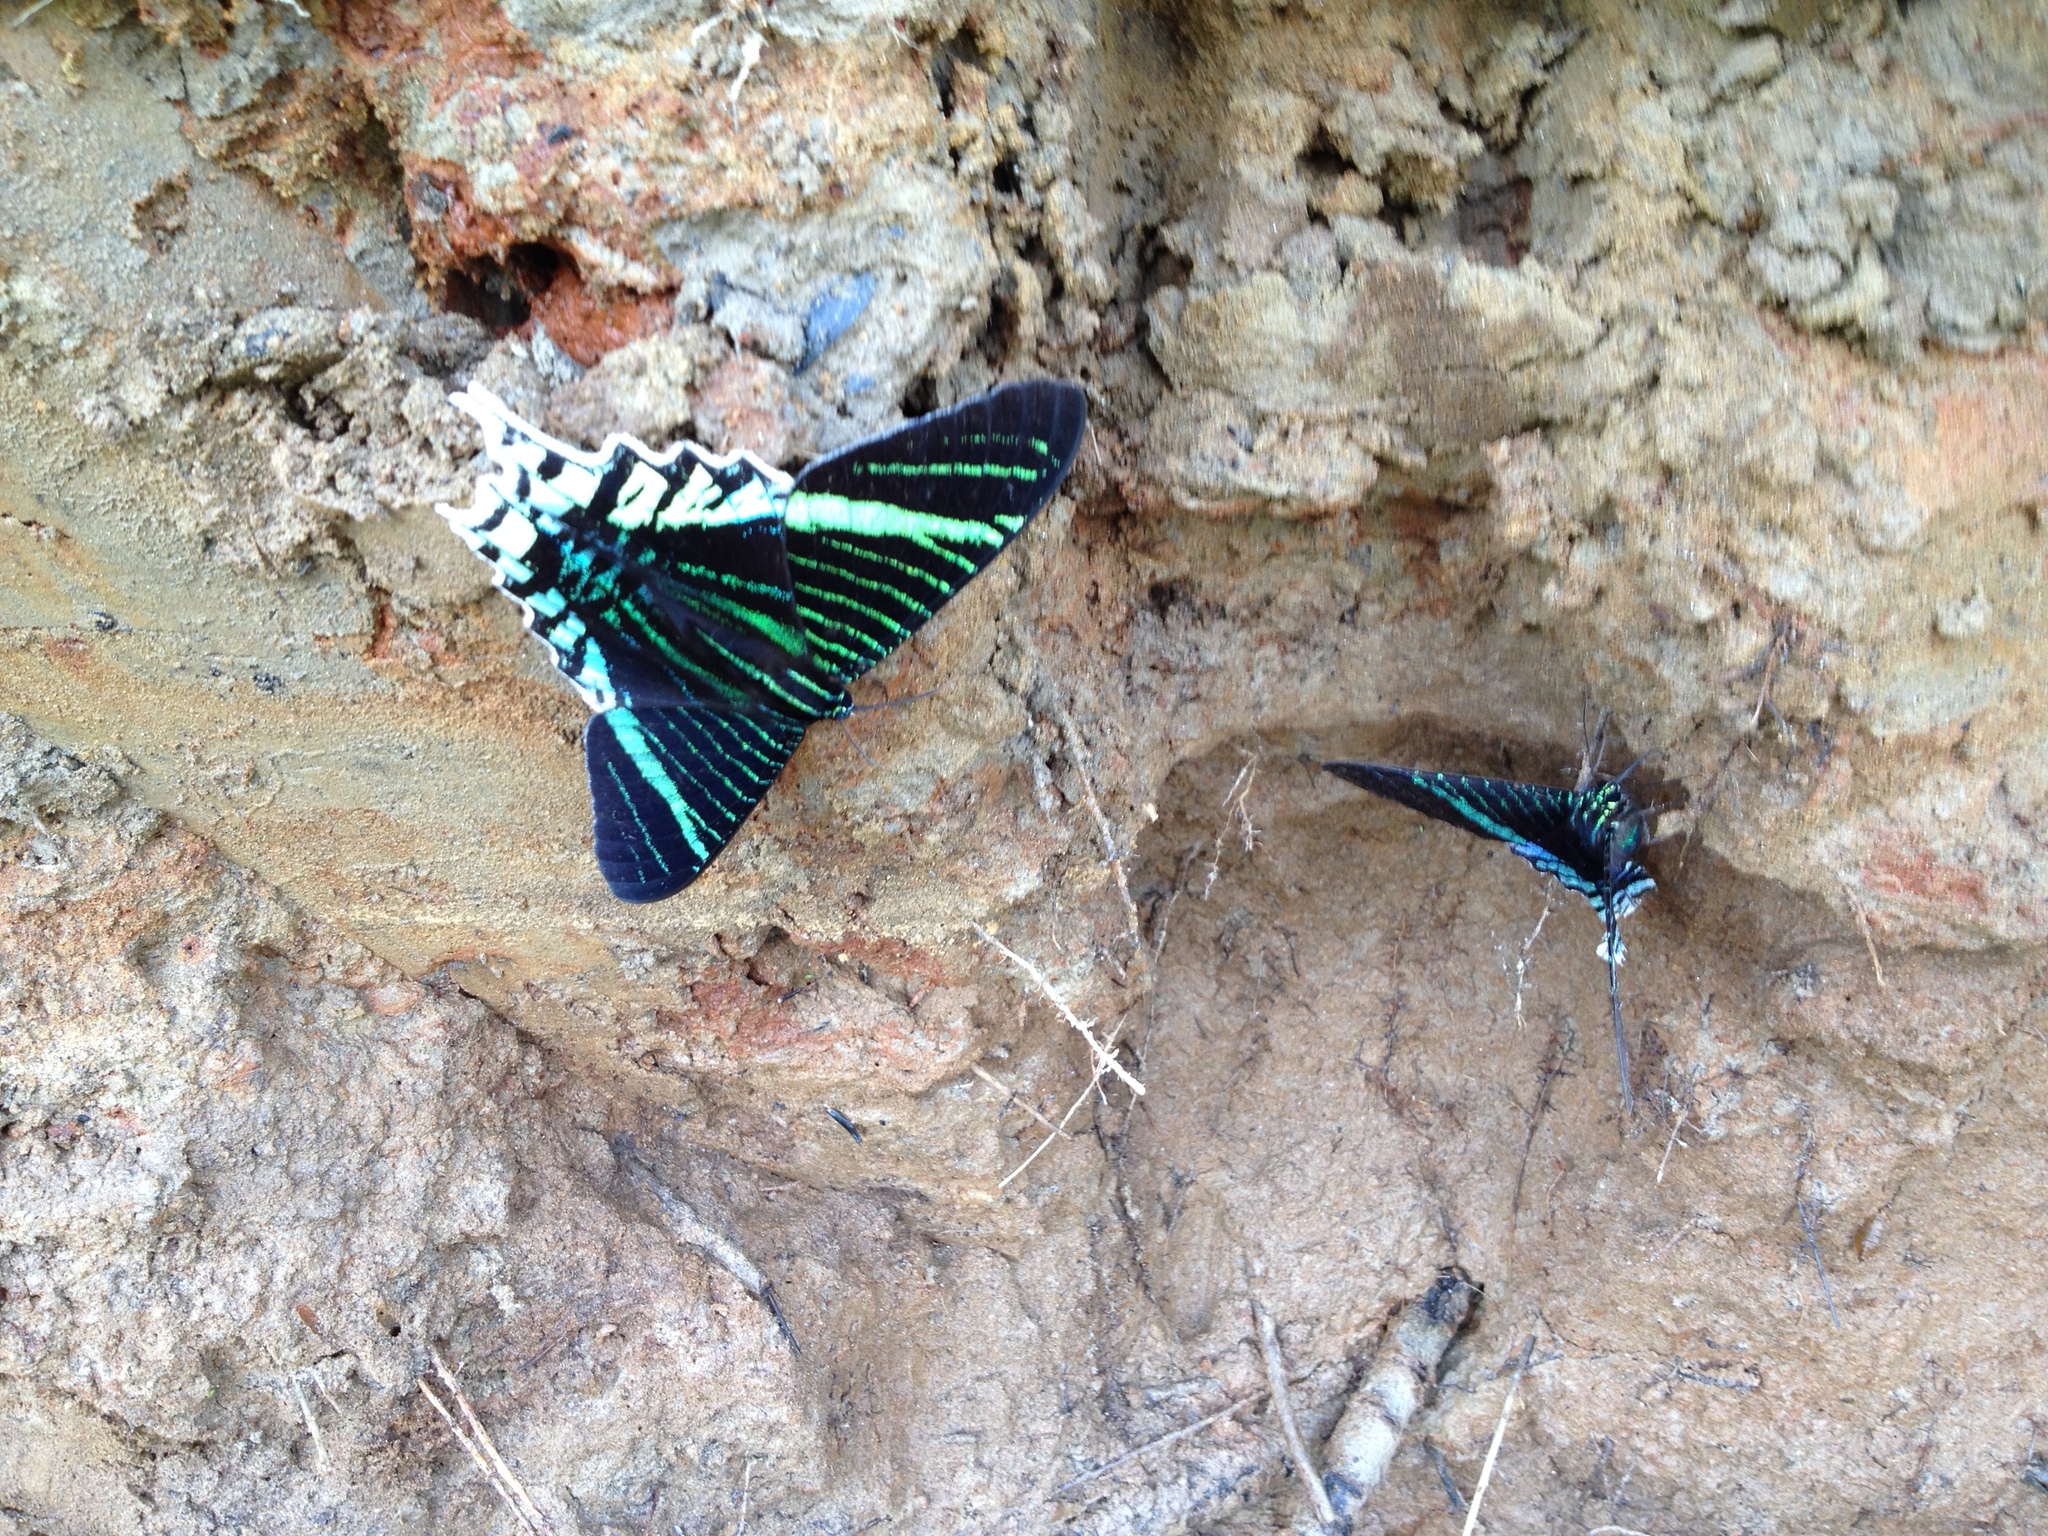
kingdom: Animalia
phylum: Arthropoda
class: Insecta
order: Lepidoptera
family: Uraniidae
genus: Urania
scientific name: Urania leilus
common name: Peacock moth
